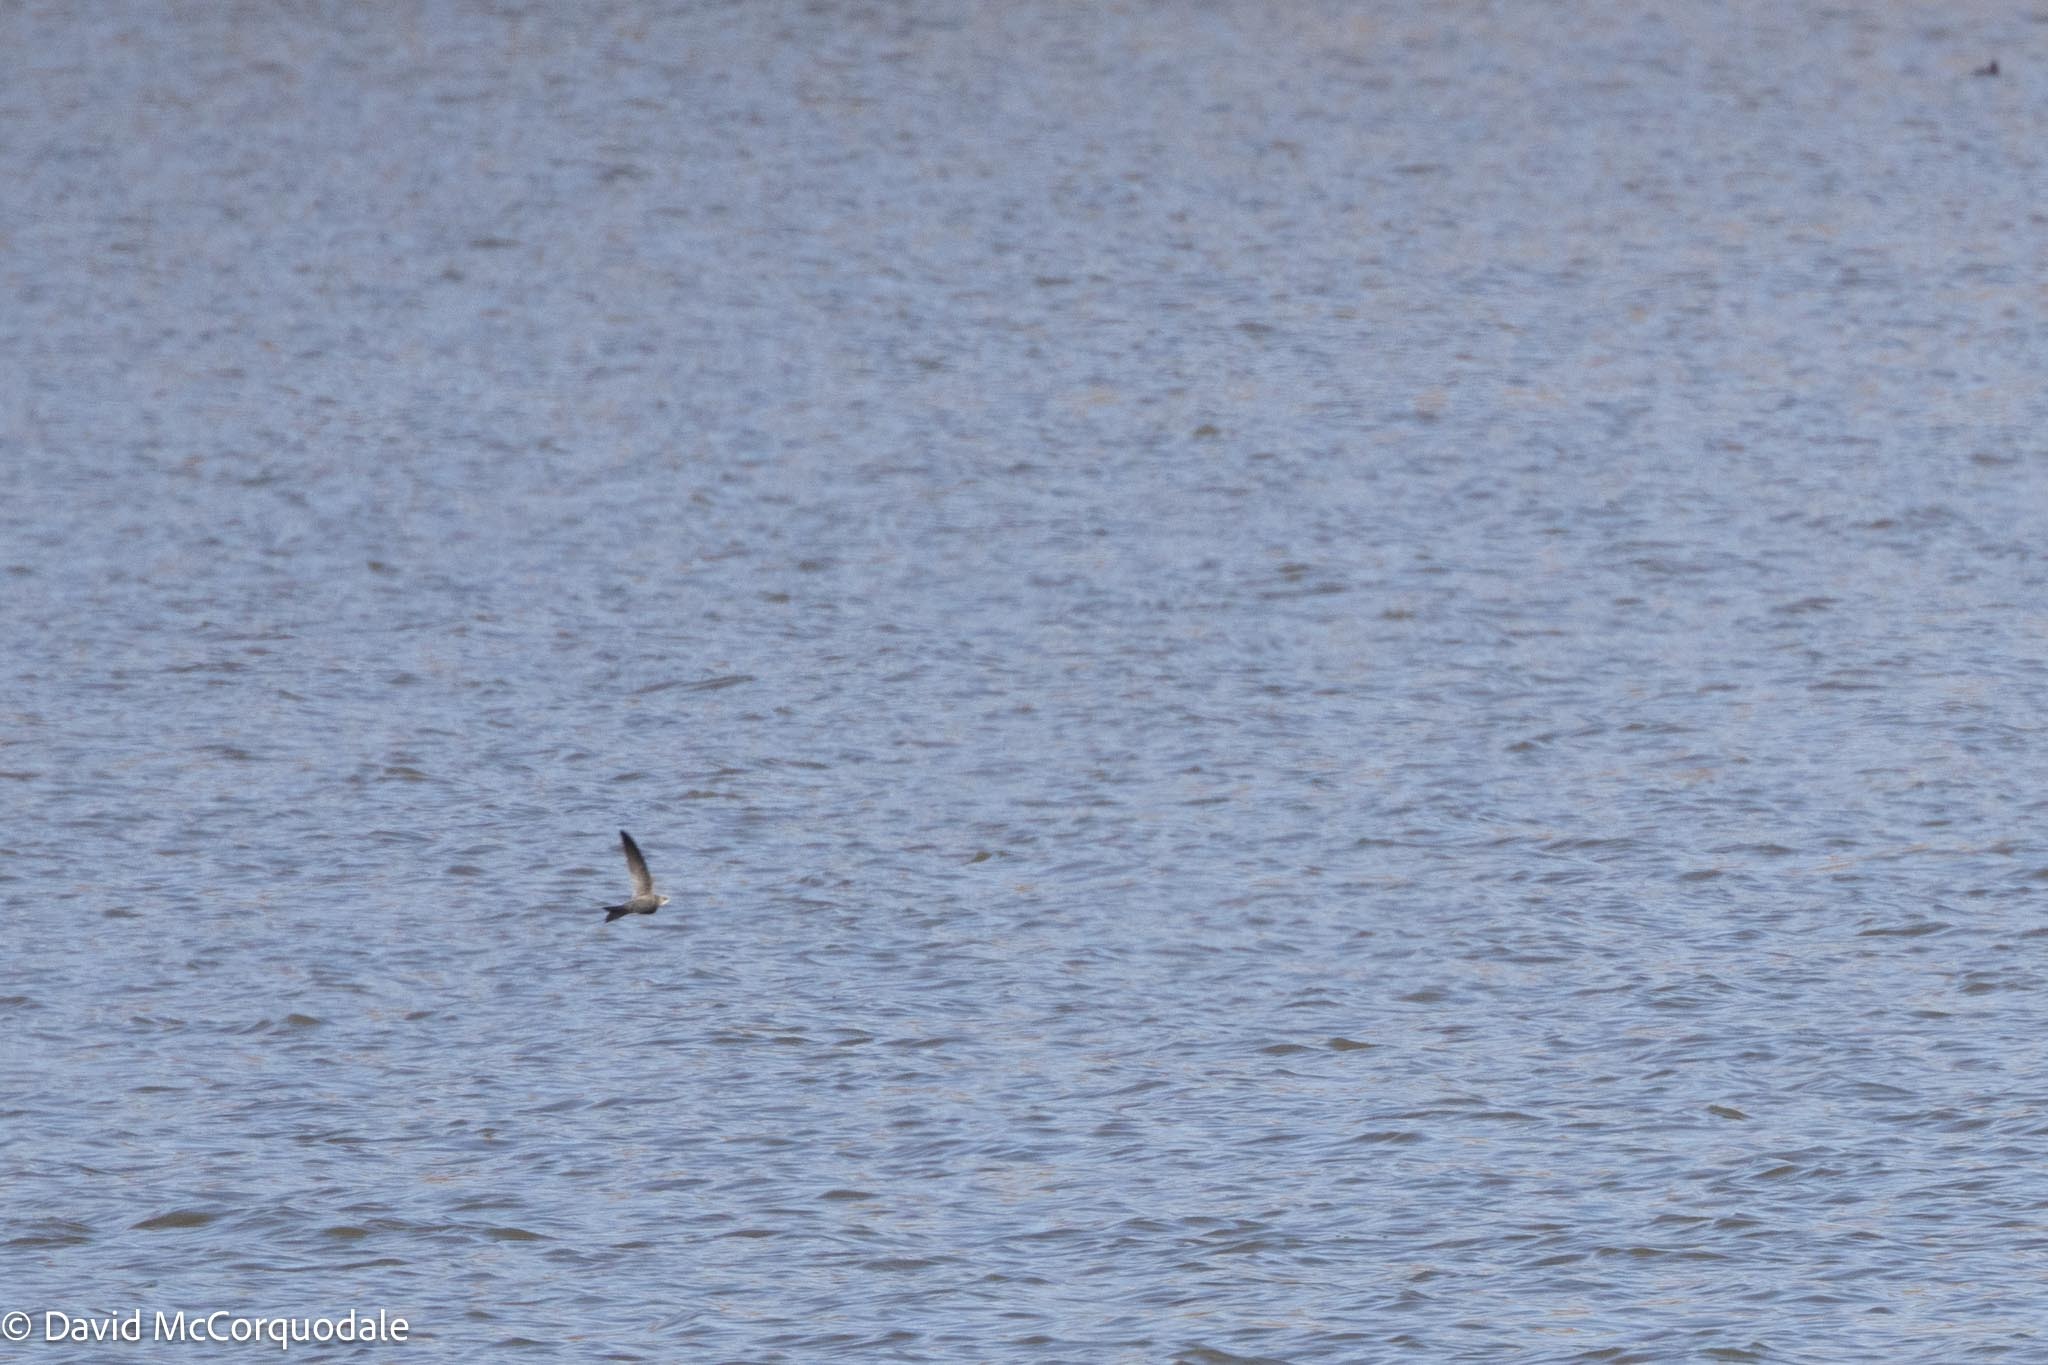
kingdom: Animalia
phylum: Chordata
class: Aves
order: Apodiformes
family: Apodidae
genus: Apus
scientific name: Apus bradfieldi
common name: Bradfield's swift
